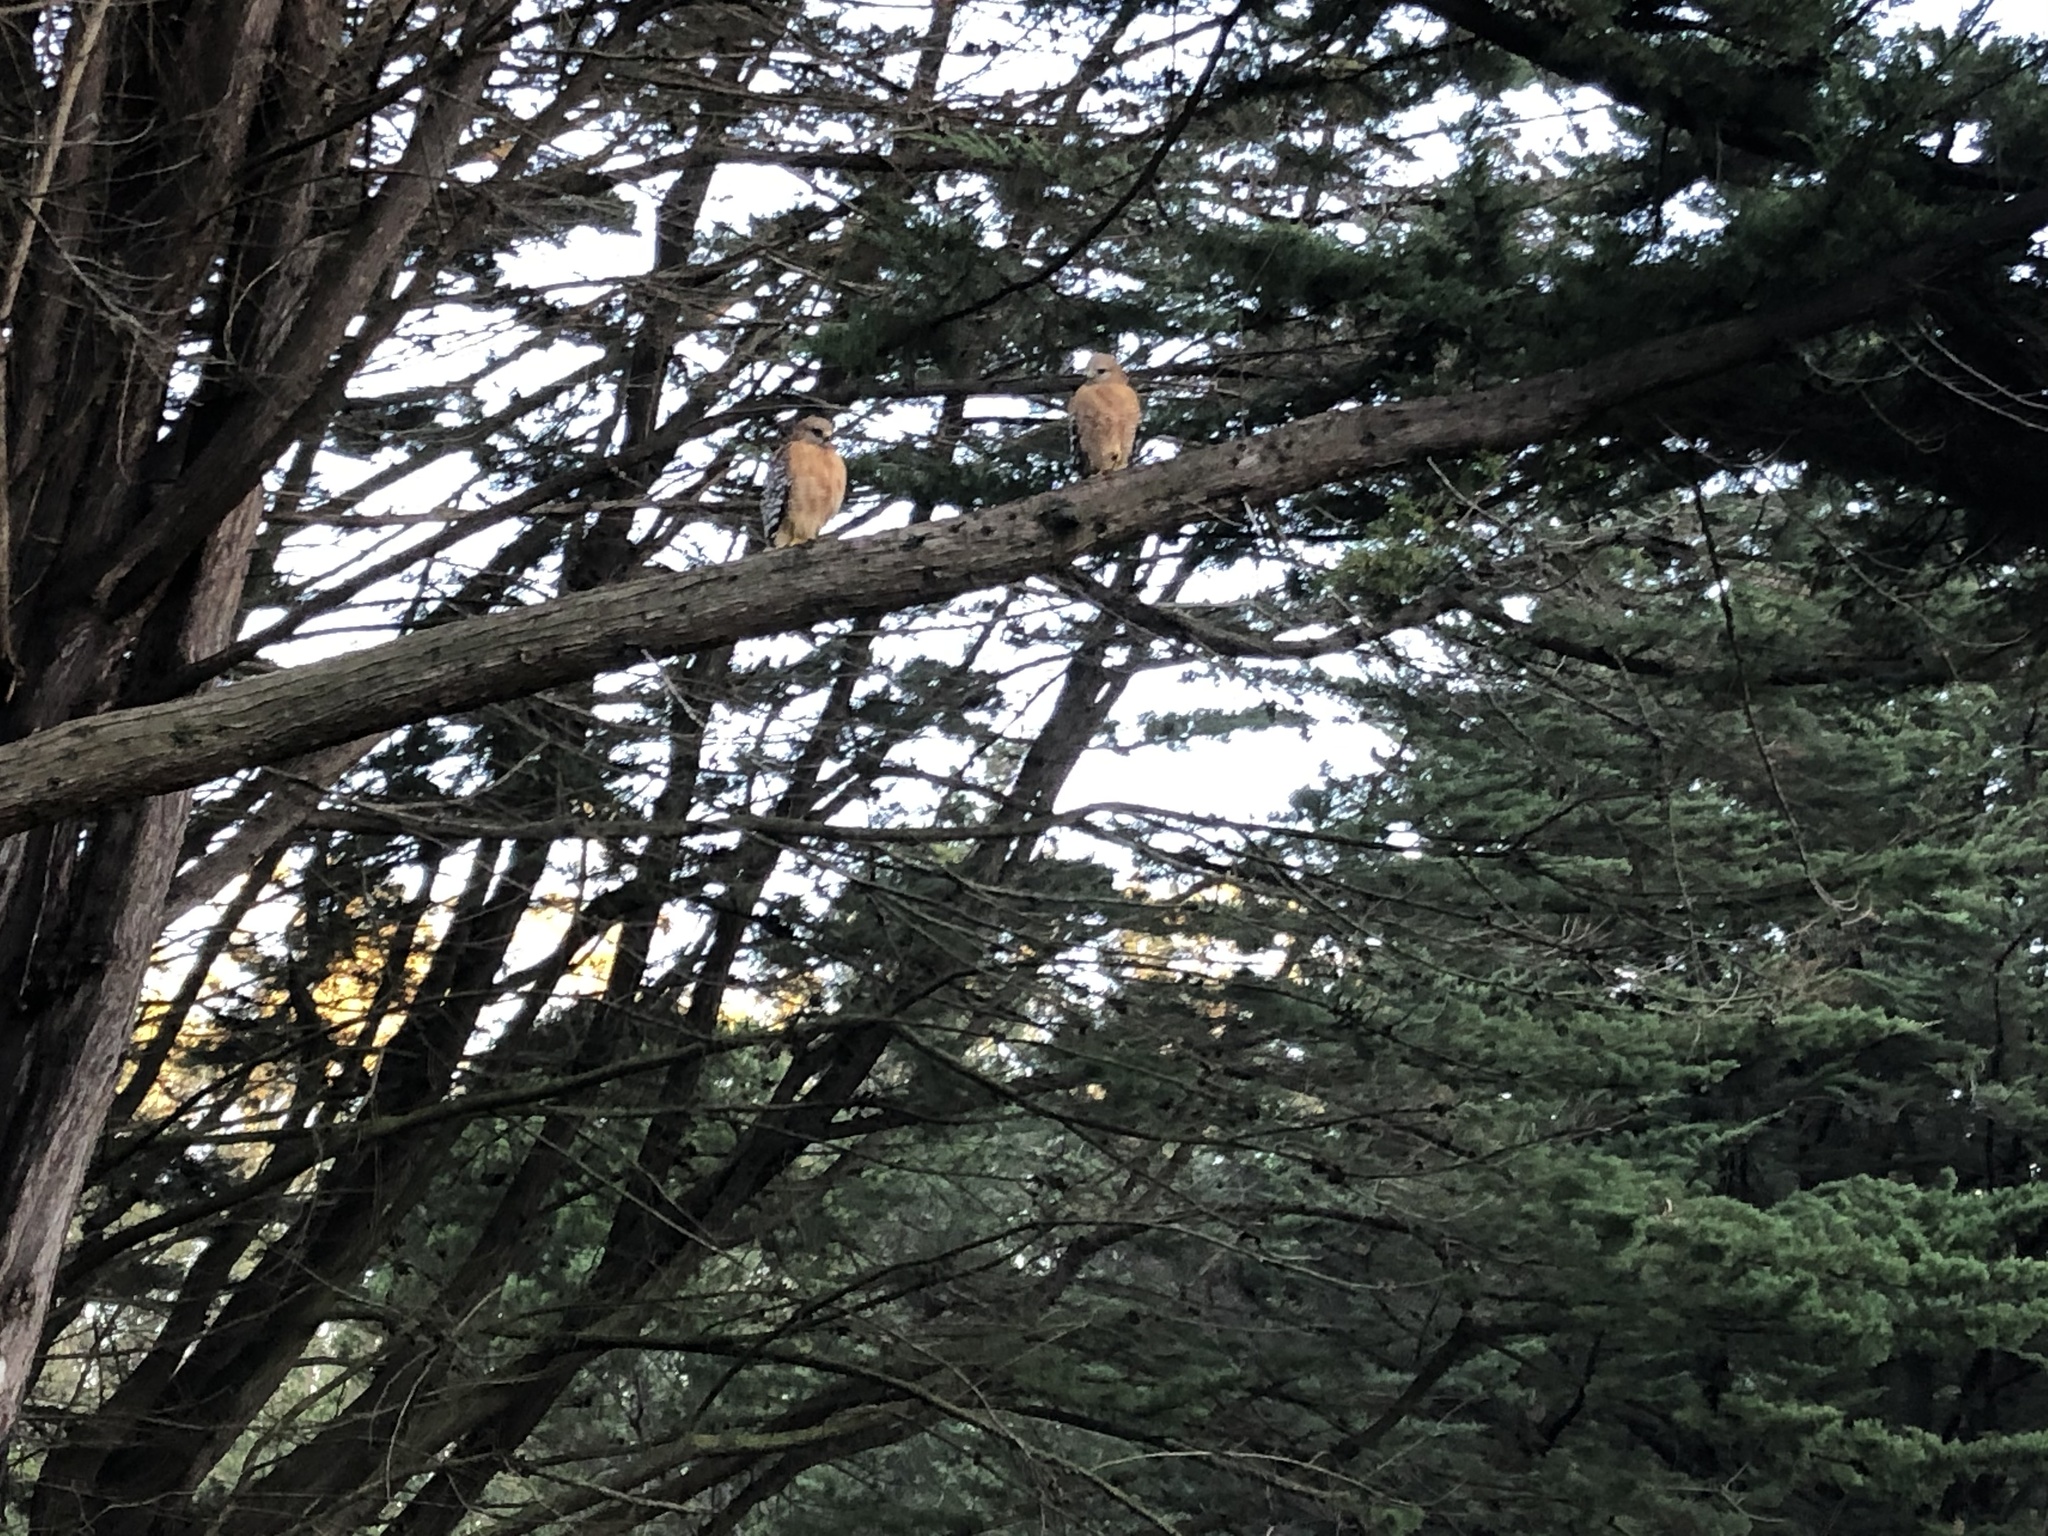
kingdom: Animalia
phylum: Chordata
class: Aves
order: Accipitriformes
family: Accipitridae
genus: Buteo
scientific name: Buteo lineatus
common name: Red-shouldered hawk
